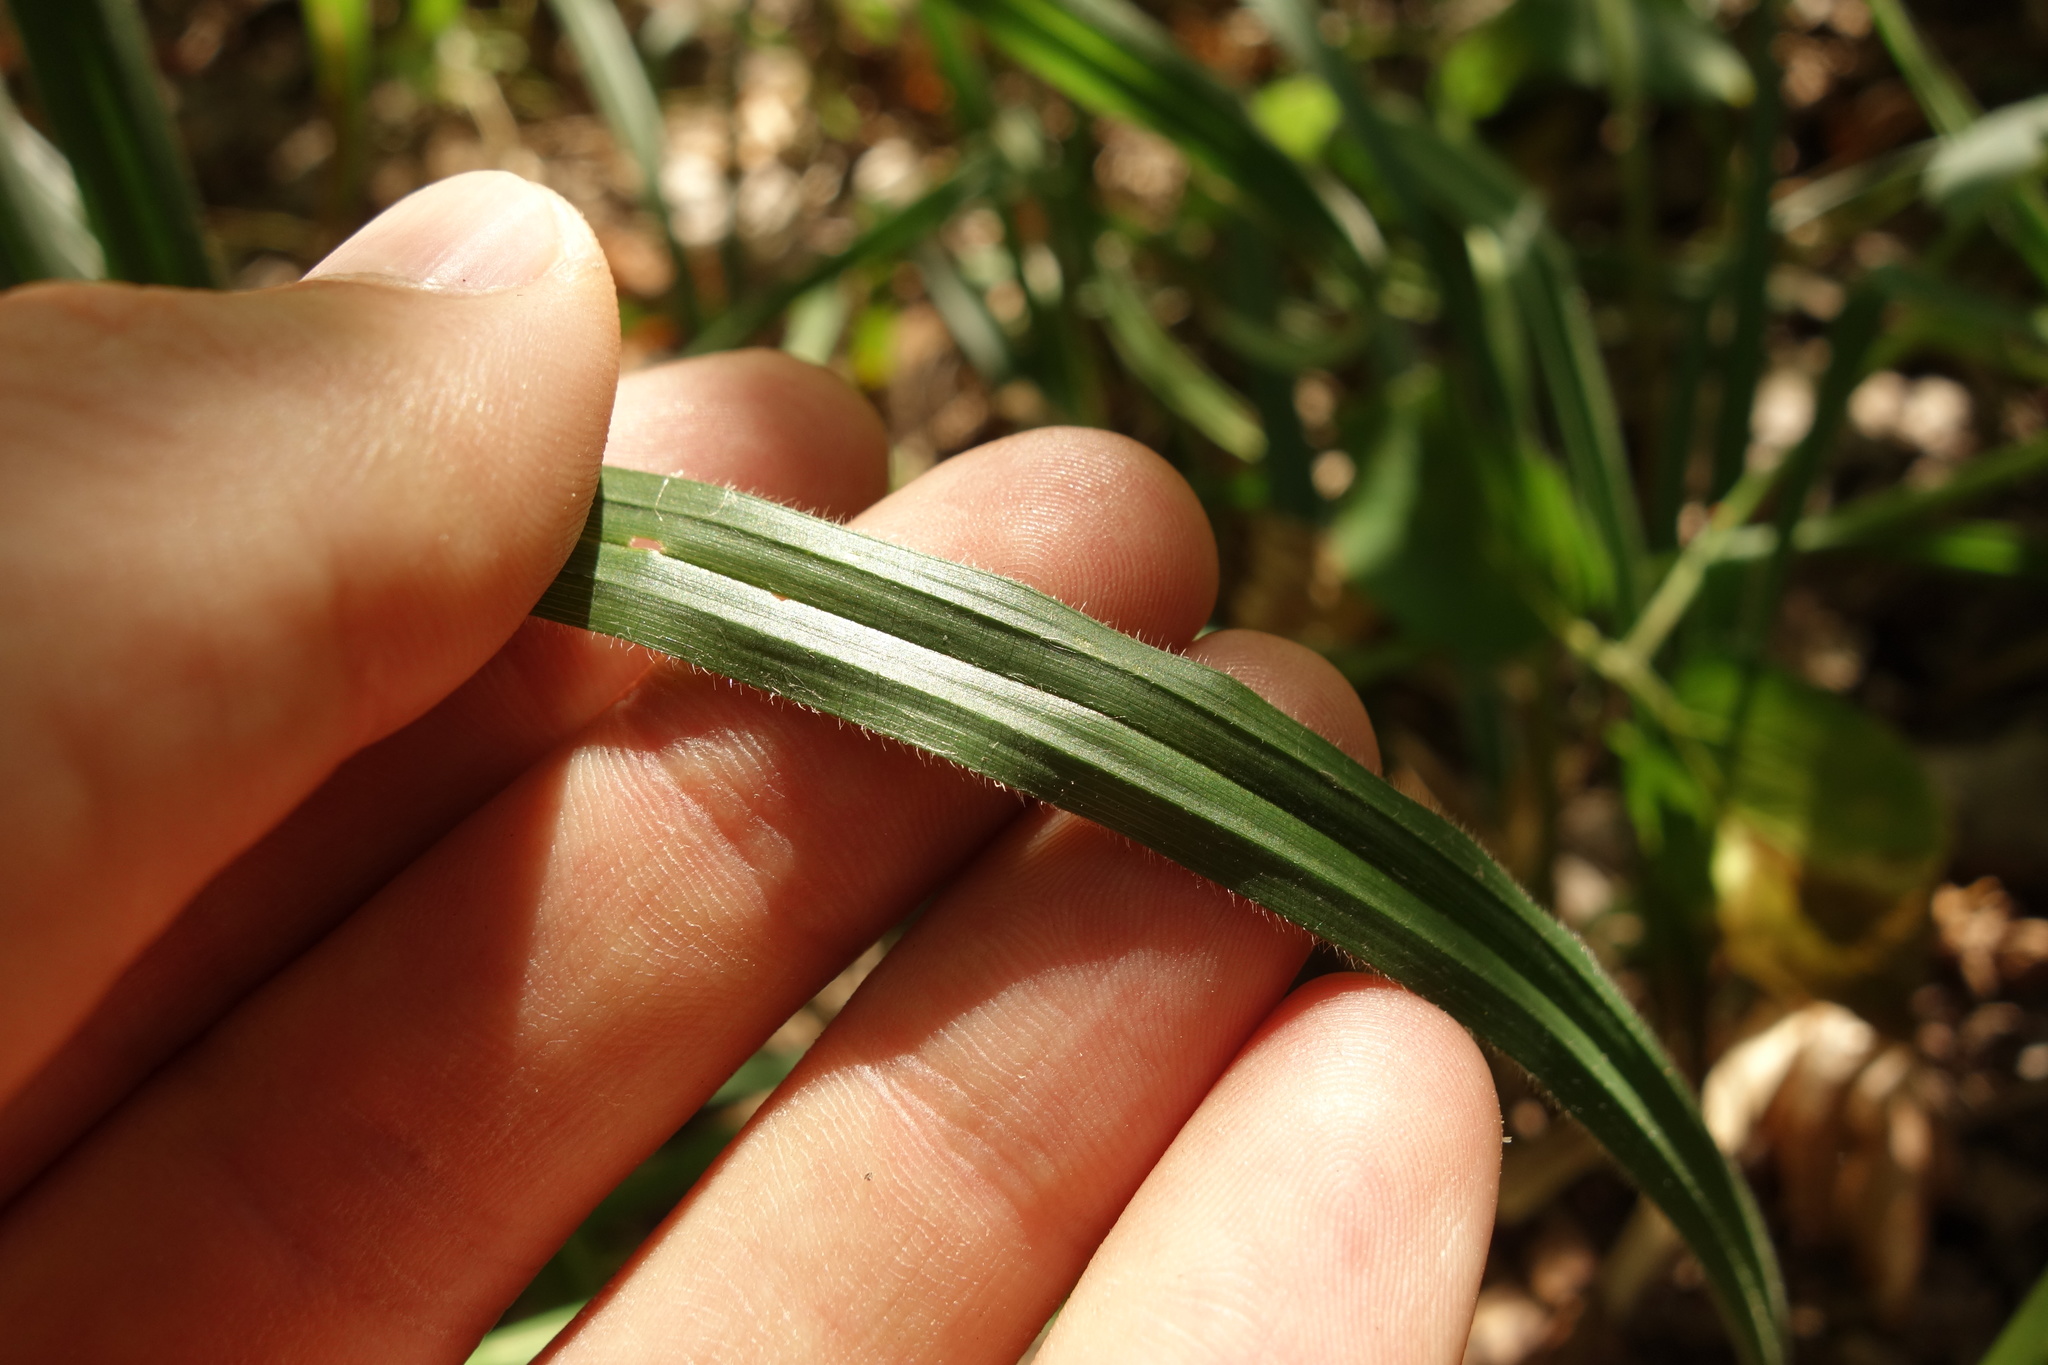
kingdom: Plantae
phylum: Tracheophyta
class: Liliopsida
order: Poales
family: Cyperaceae
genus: Carex
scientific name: Carex pilosa
